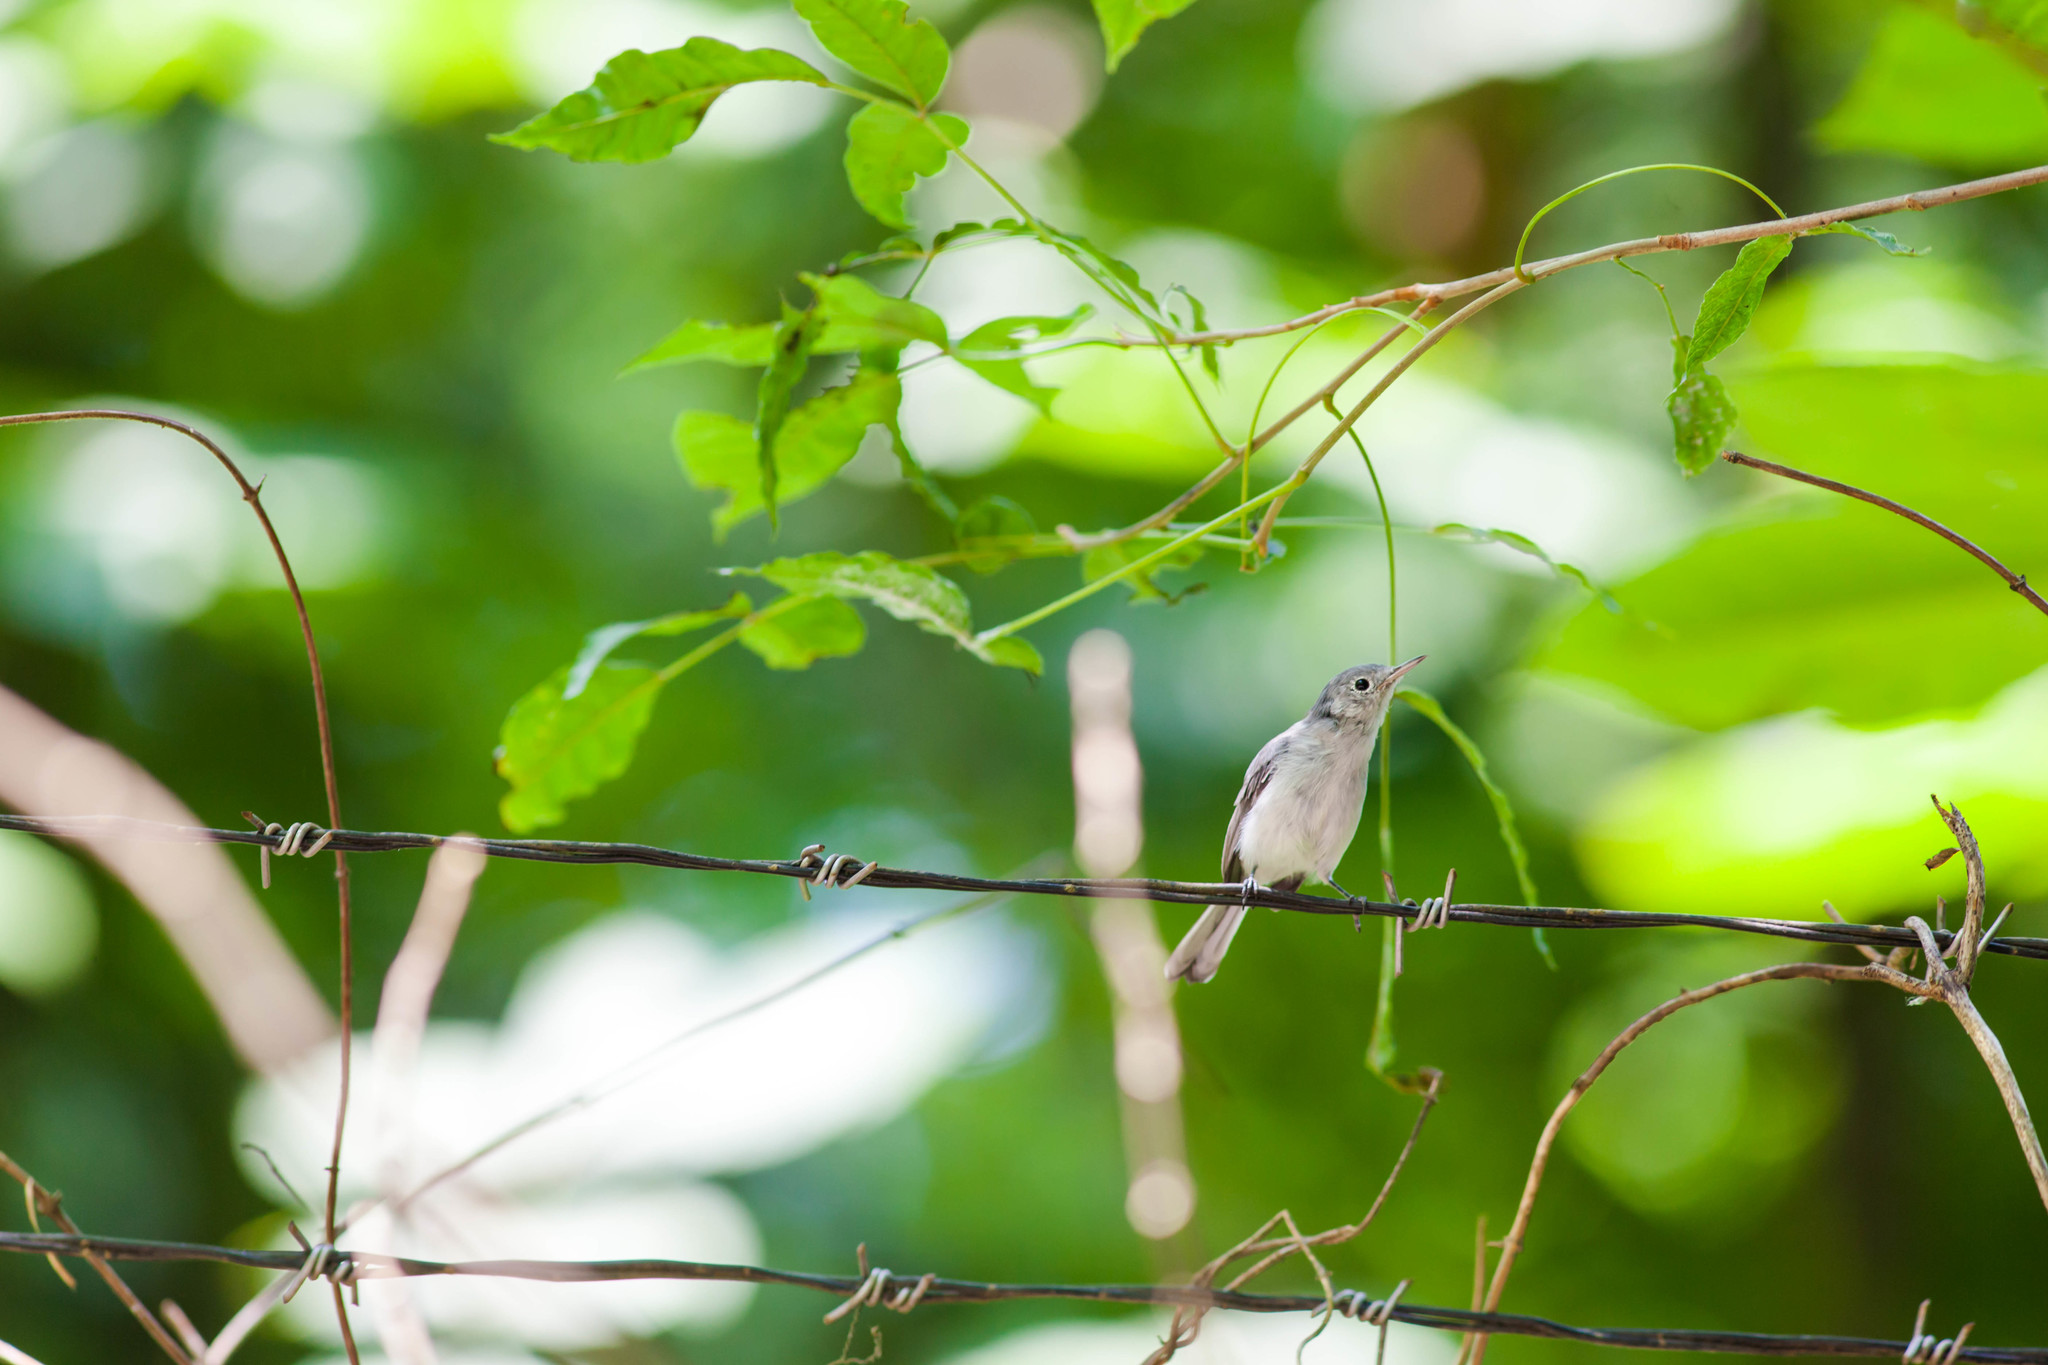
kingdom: Animalia
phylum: Chordata
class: Aves
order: Passeriformes
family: Polioptilidae
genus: Polioptila
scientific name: Polioptila caerulea
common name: Blue-gray gnatcatcher
